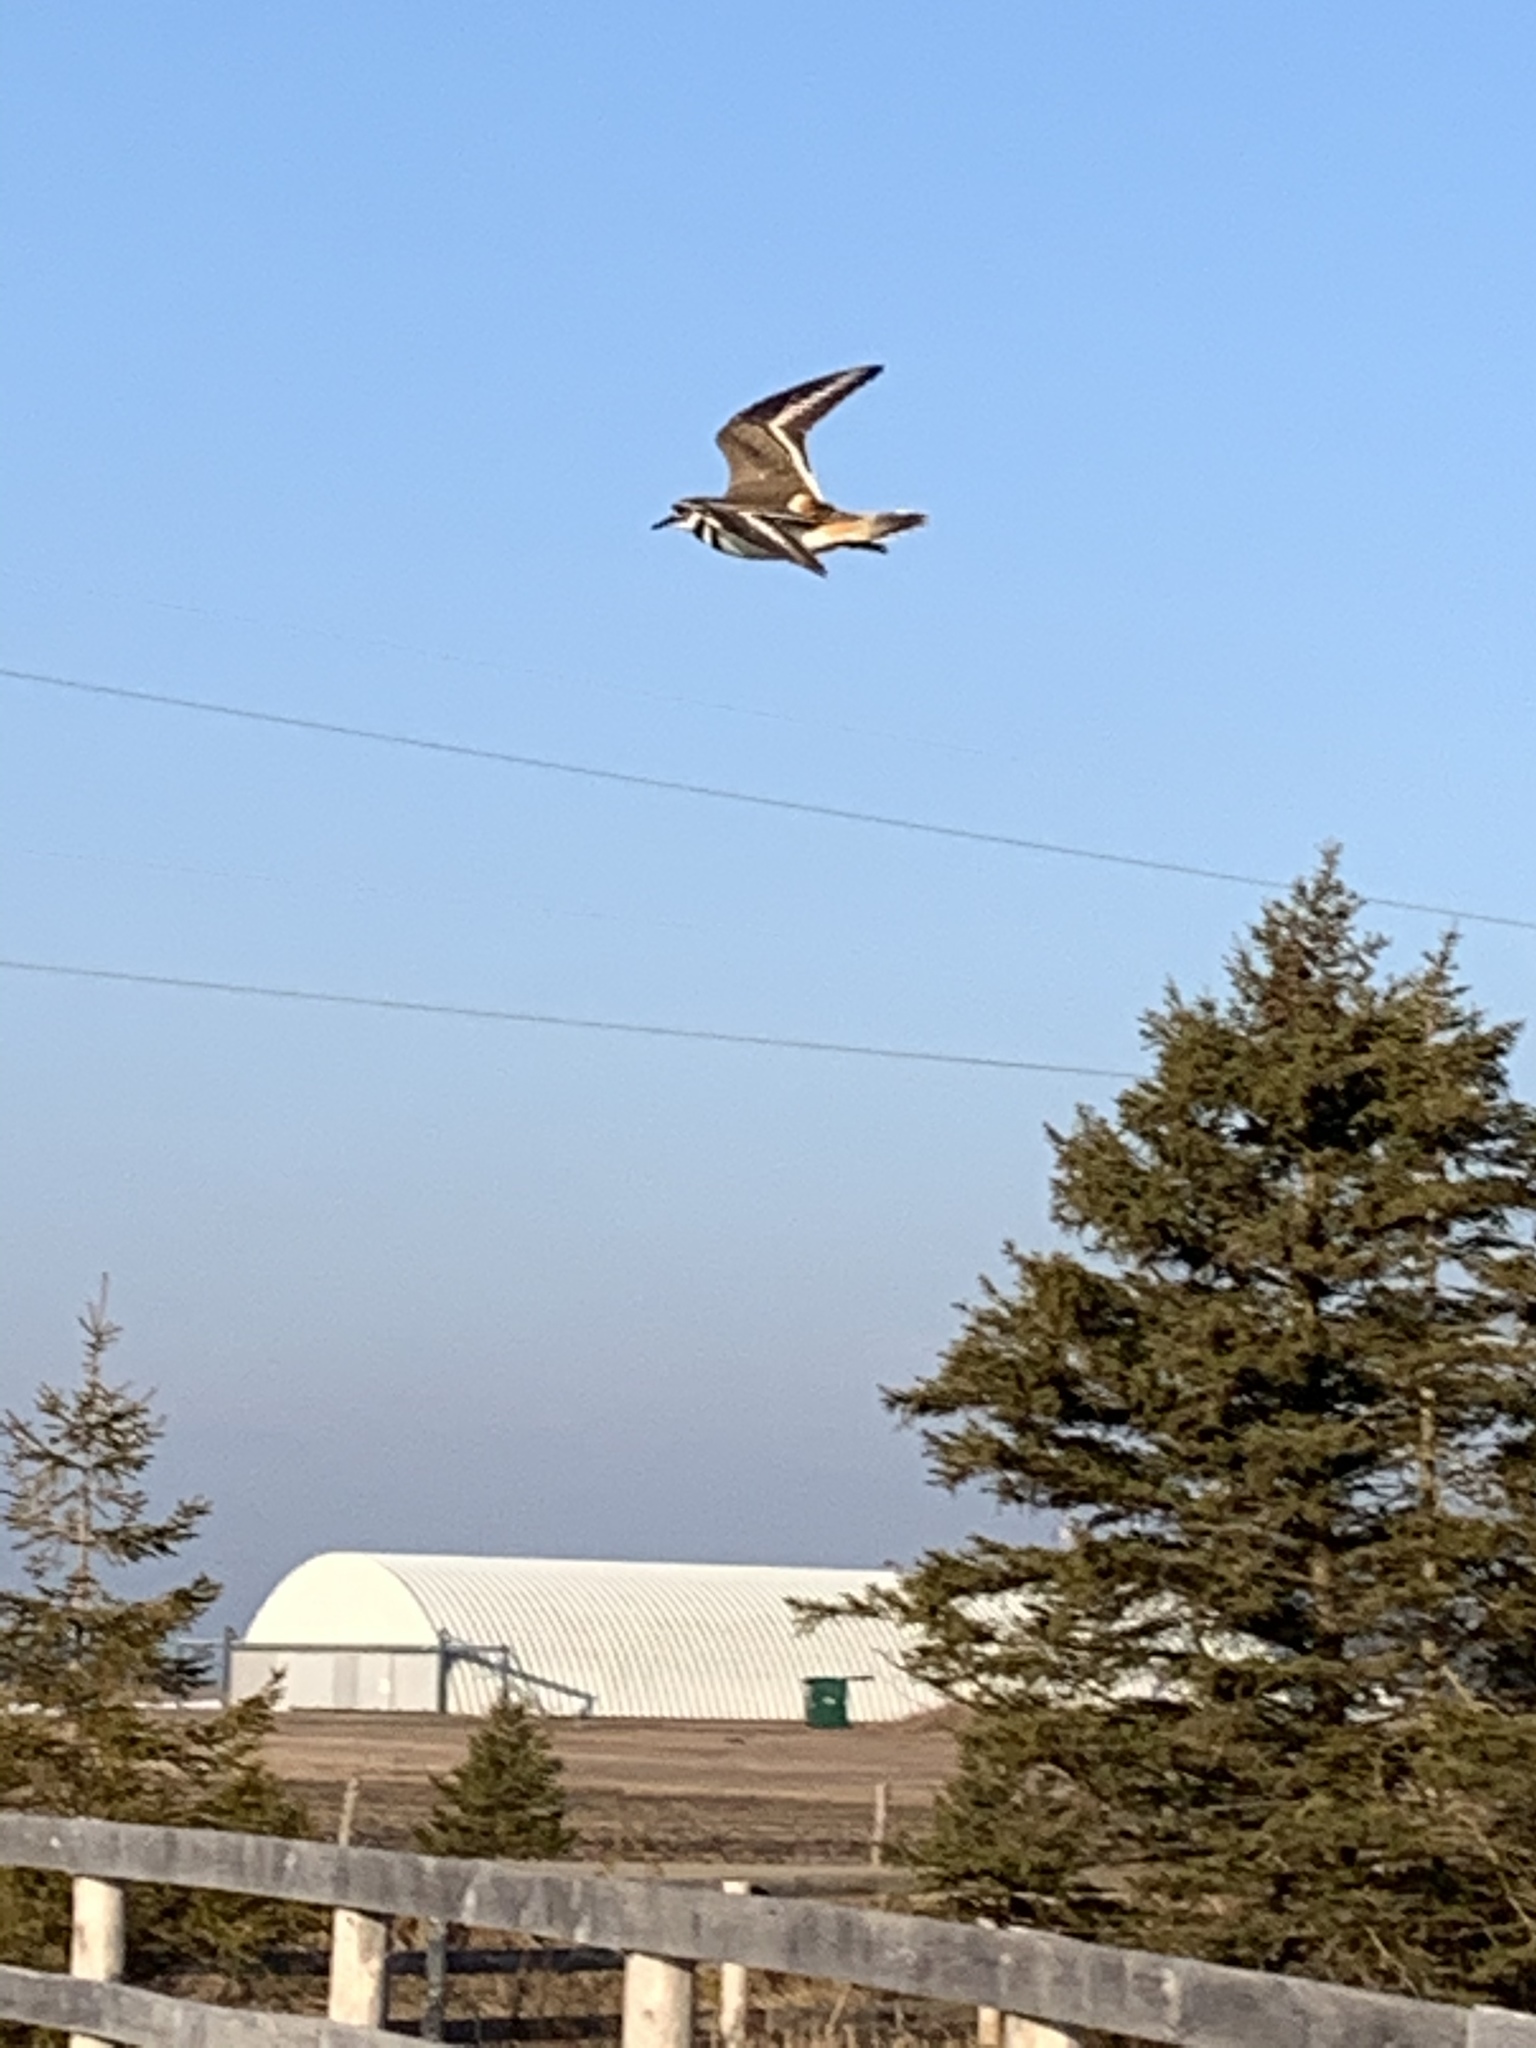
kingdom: Animalia
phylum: Chordata
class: Aves
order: Charadriiformes
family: Charadriidae
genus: Charadrius
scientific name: Charadrius vociferus
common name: Killdeer
